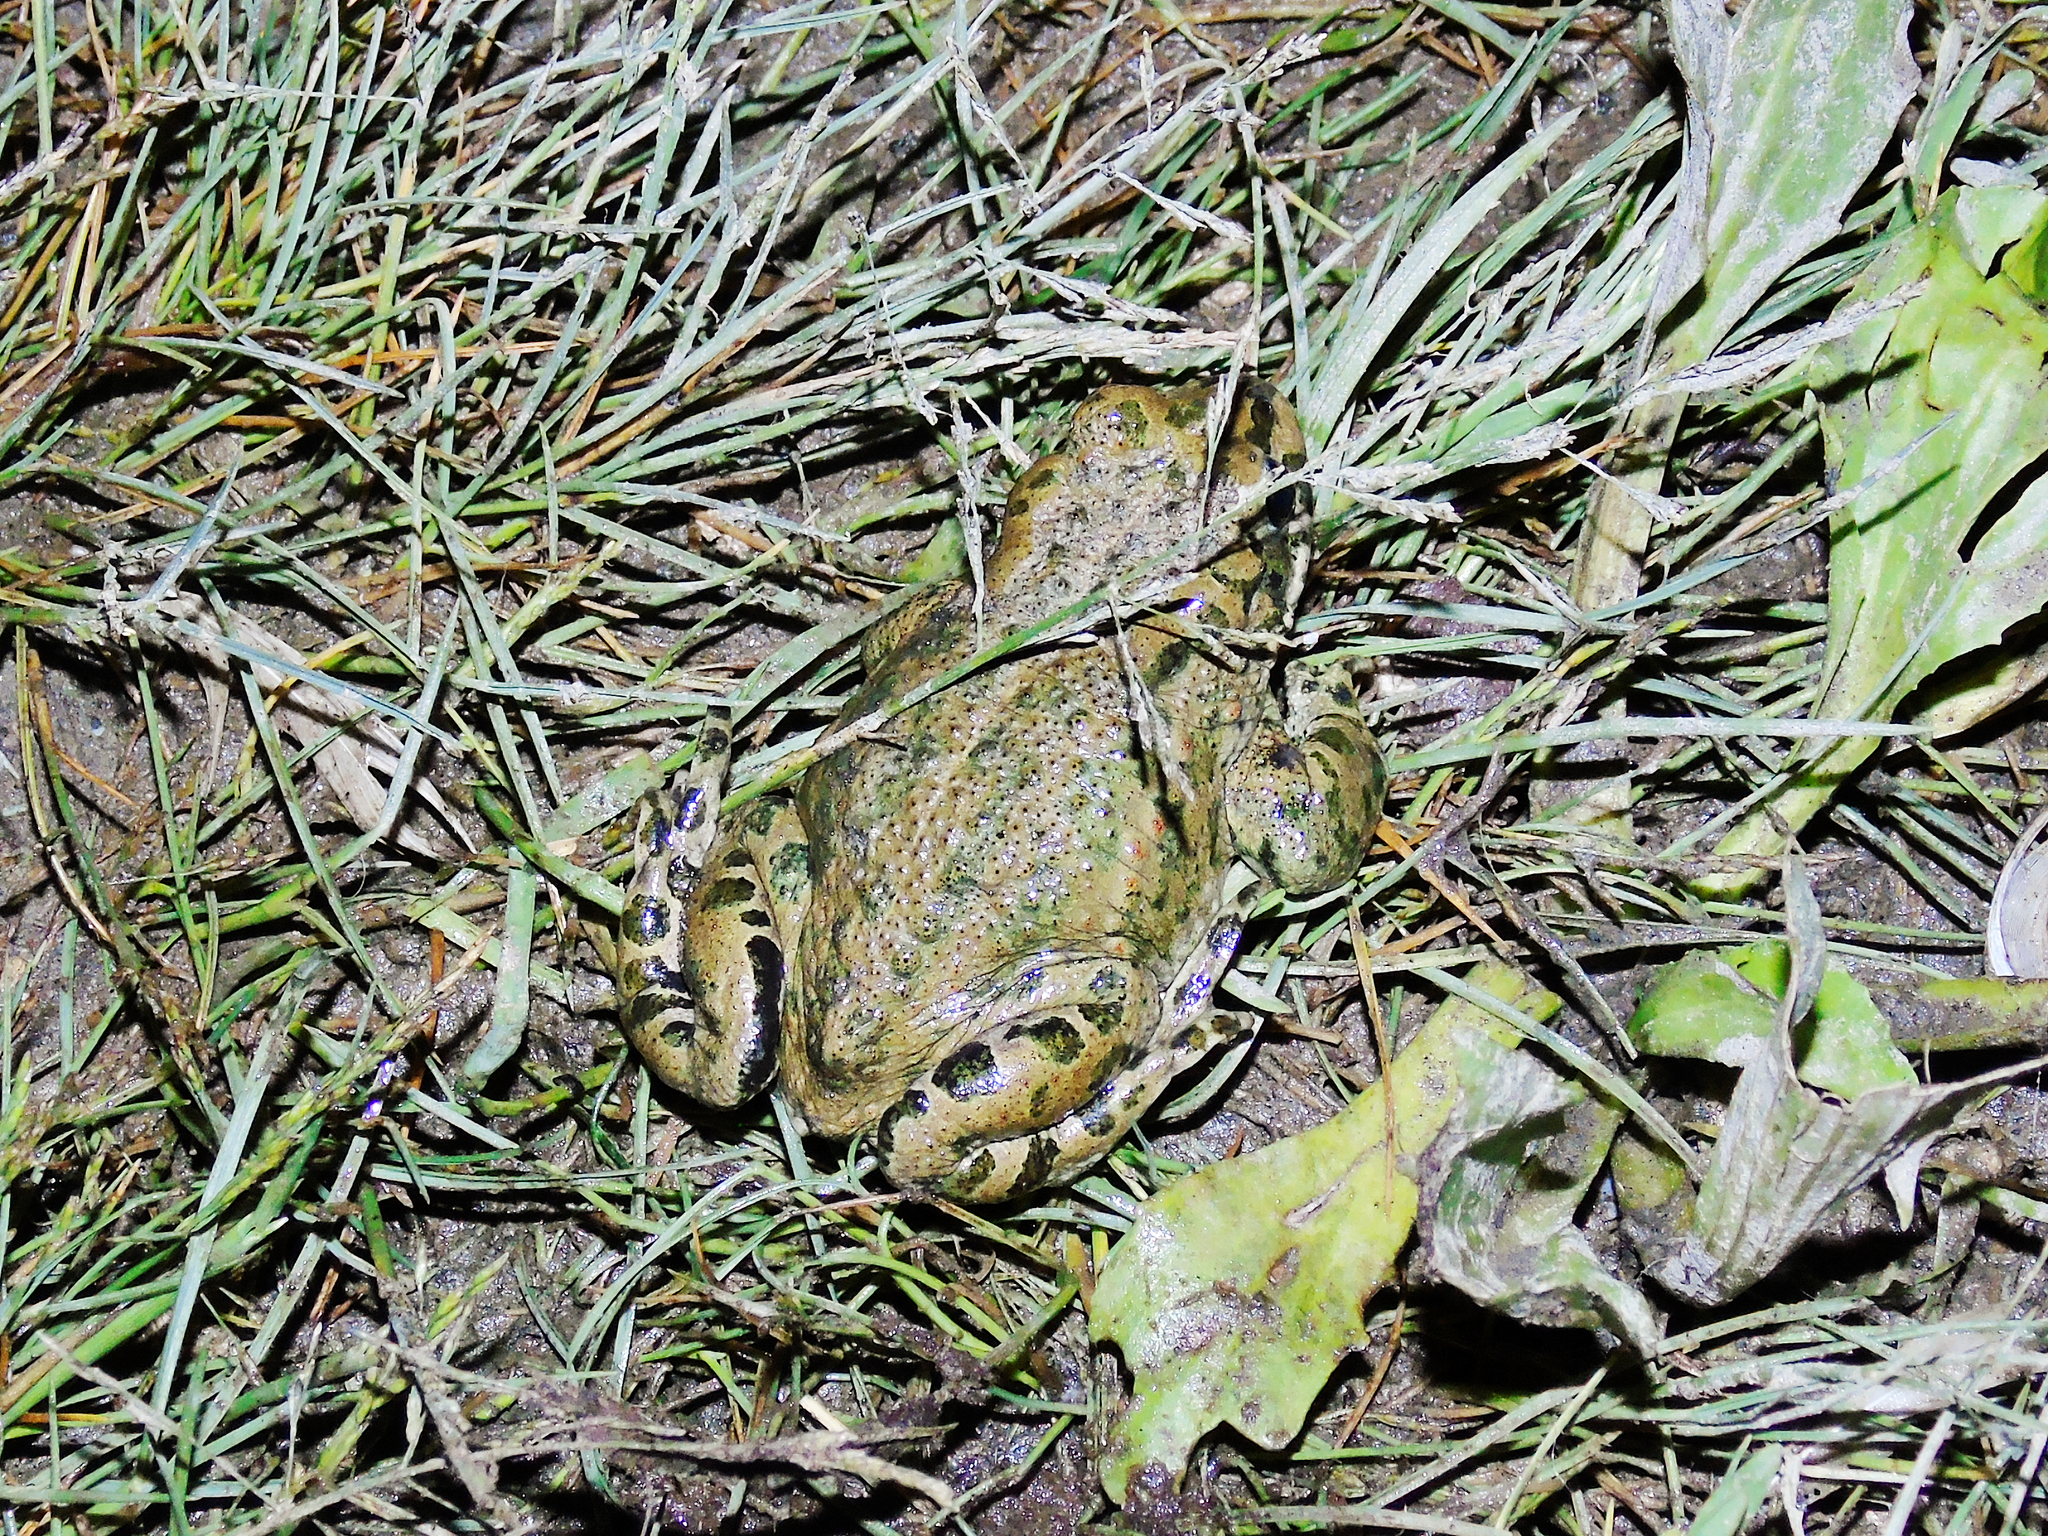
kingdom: Animalia
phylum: Chordata
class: Amphibia
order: Anura
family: Bufonidae
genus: Bufotes
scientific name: Bufotes latastii
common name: Ladakh toad
